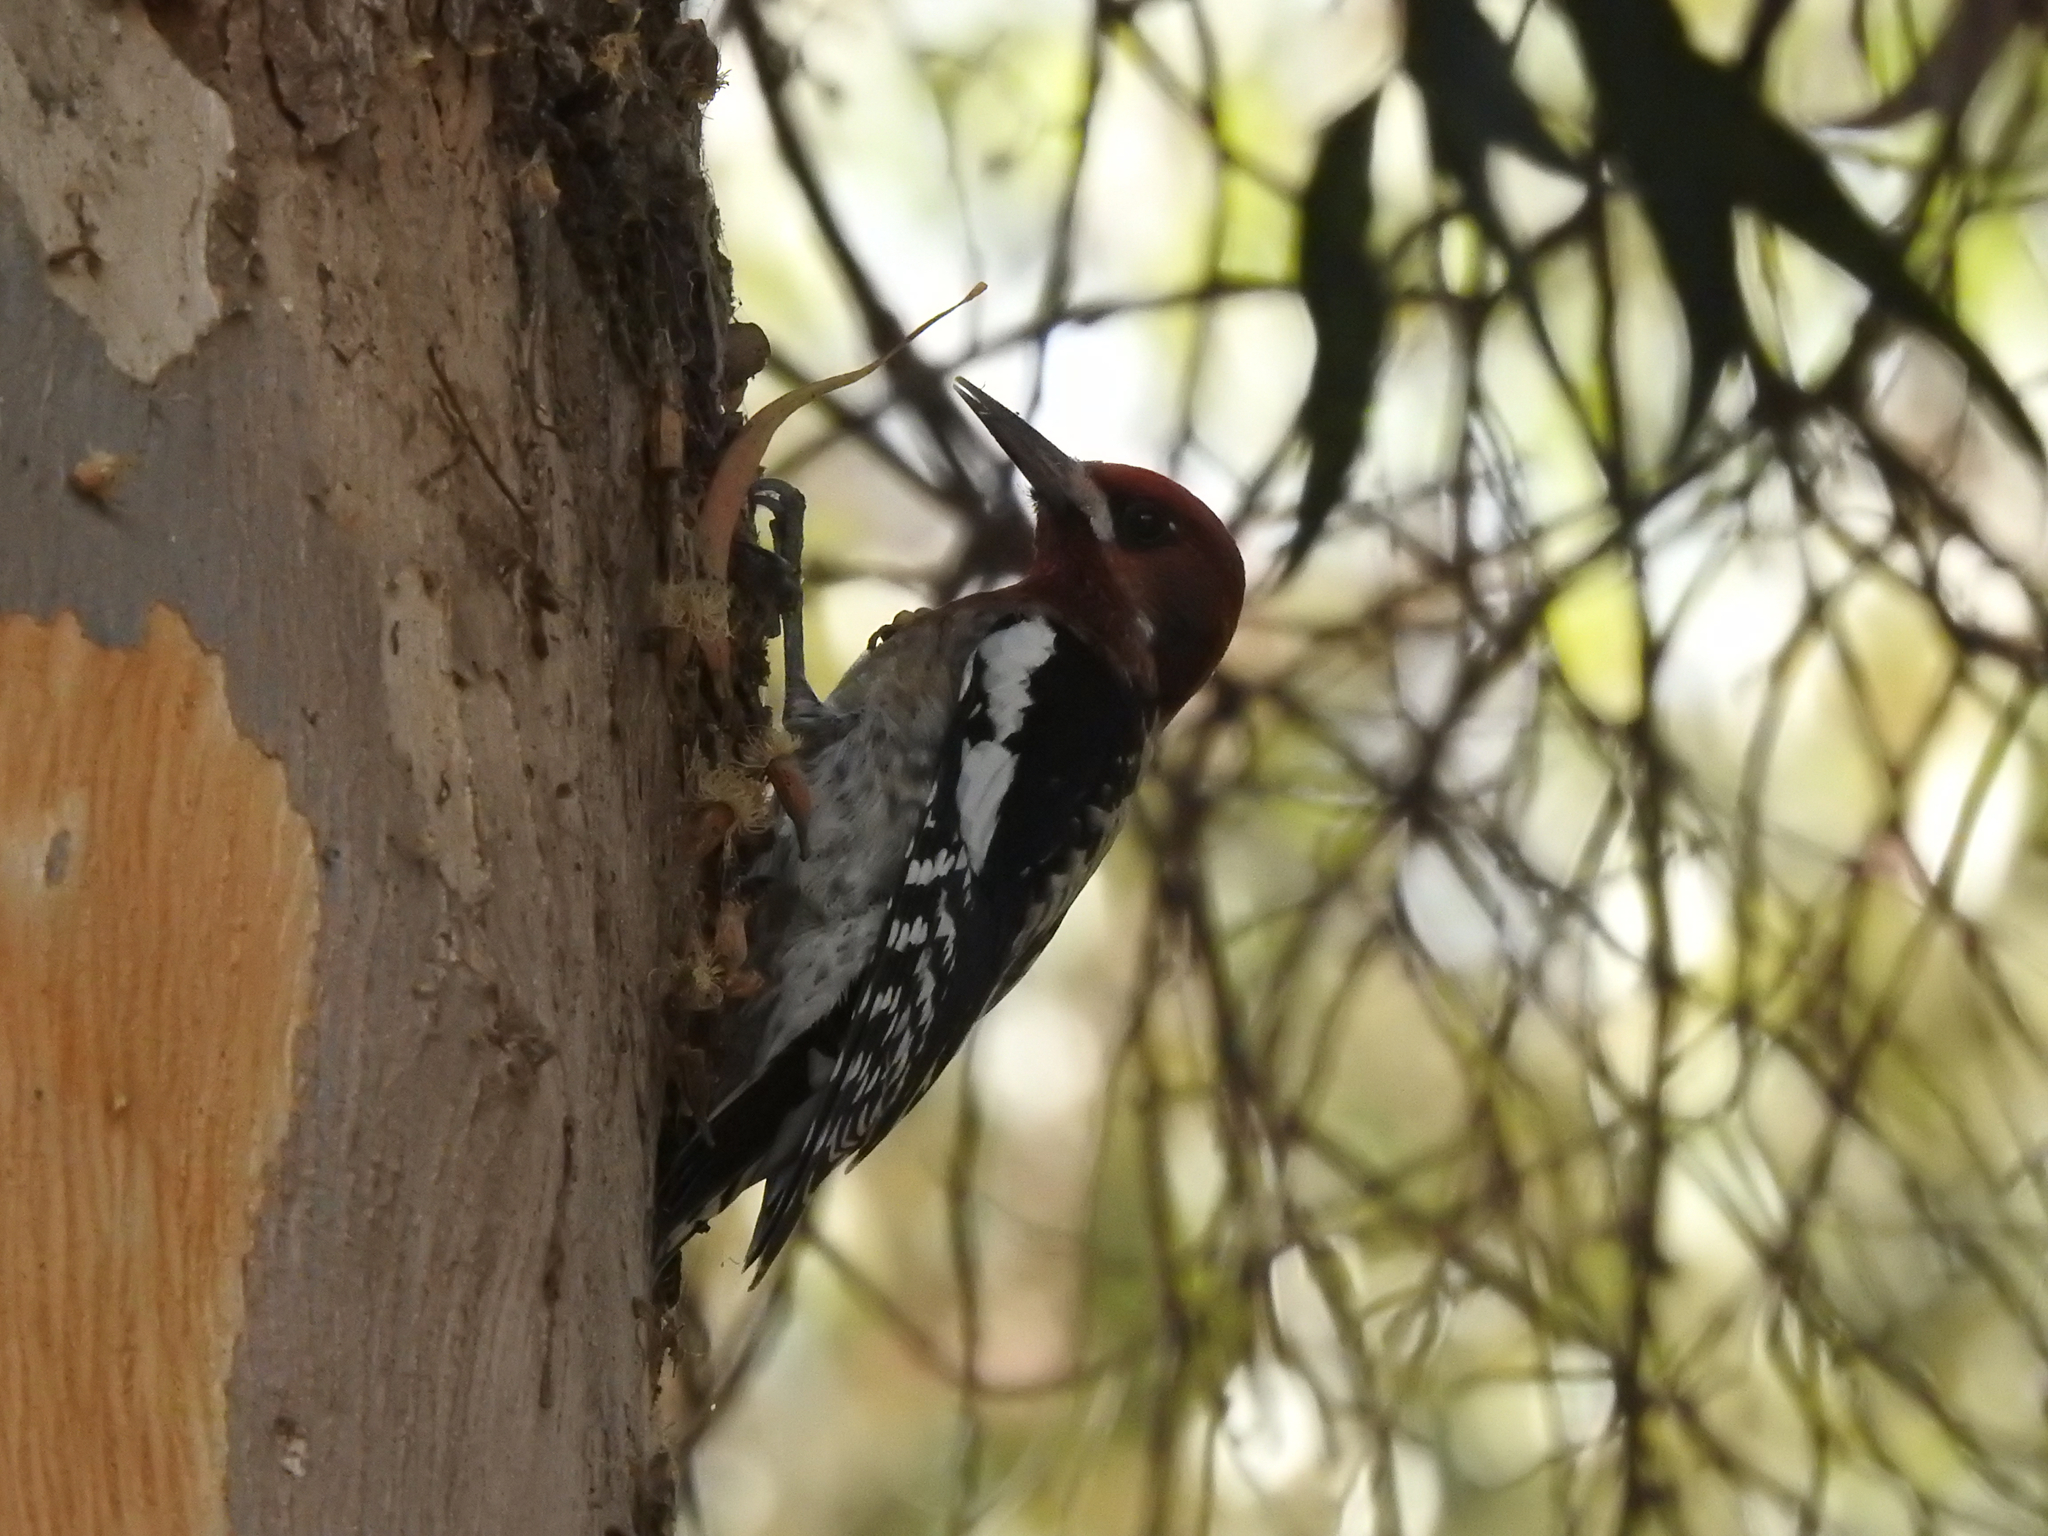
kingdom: Animalia
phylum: Chordata
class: Aves
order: Piciformes
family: Picidae
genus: Sphyrapicus
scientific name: Sphyrapicus ruber
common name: Red-breasted sapsucker
